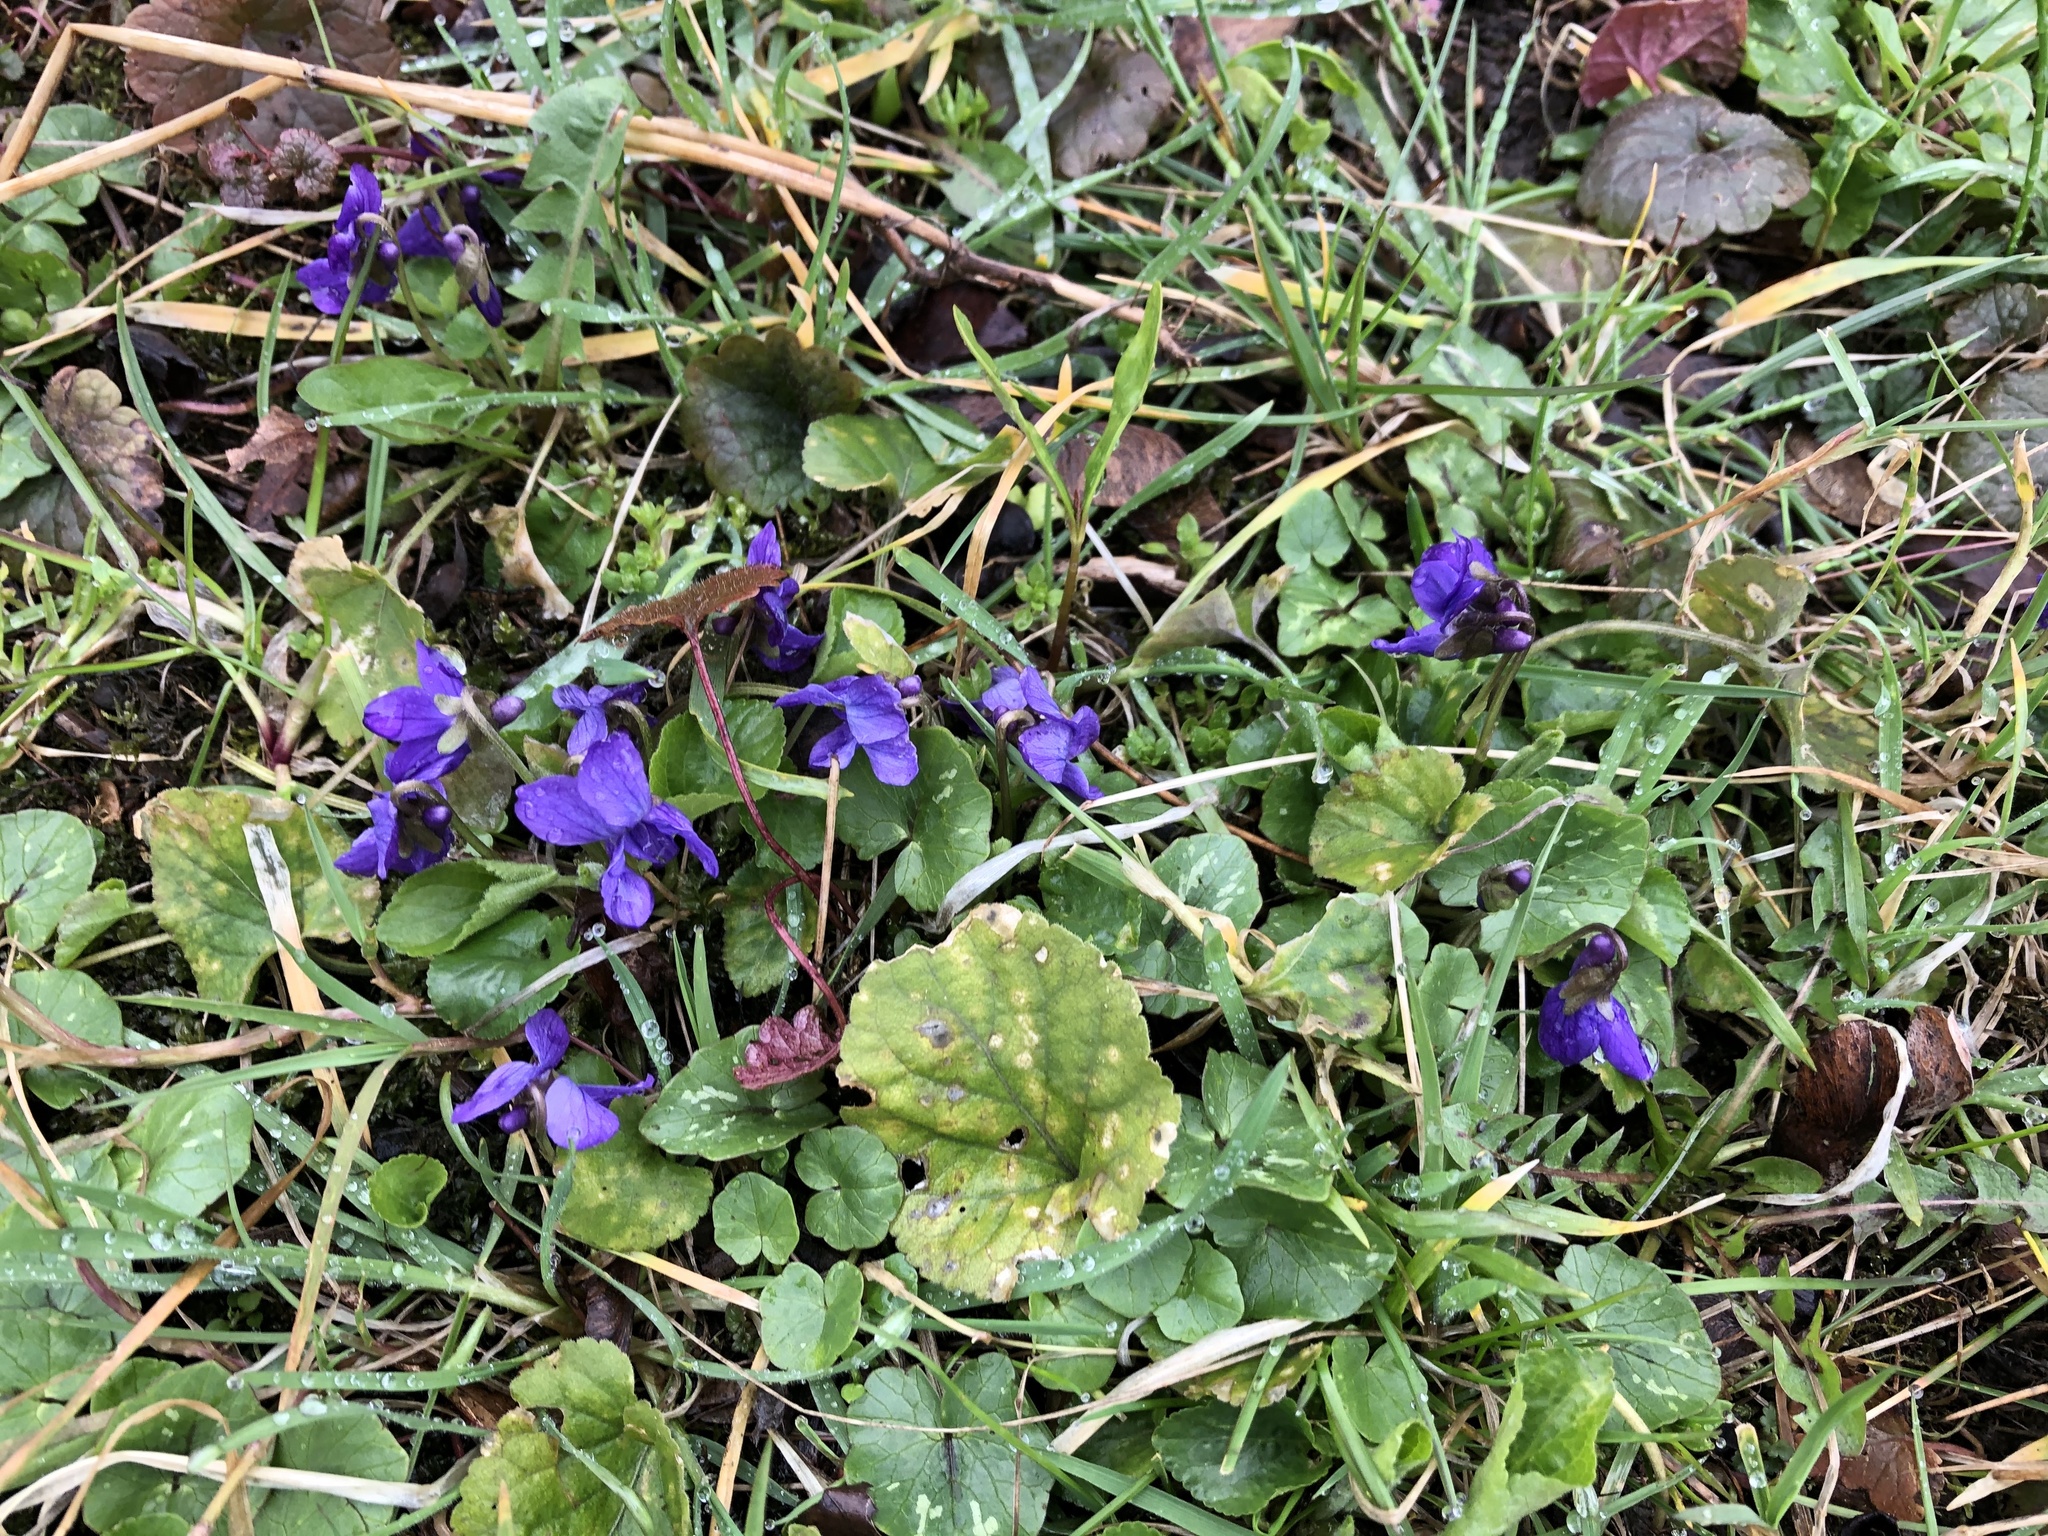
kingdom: Plantae
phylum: Tracheophyta
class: Magnoliopsida
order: Malpighiales
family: Violaceae
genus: Viola
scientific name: Viola odorata
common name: Sweet violet
